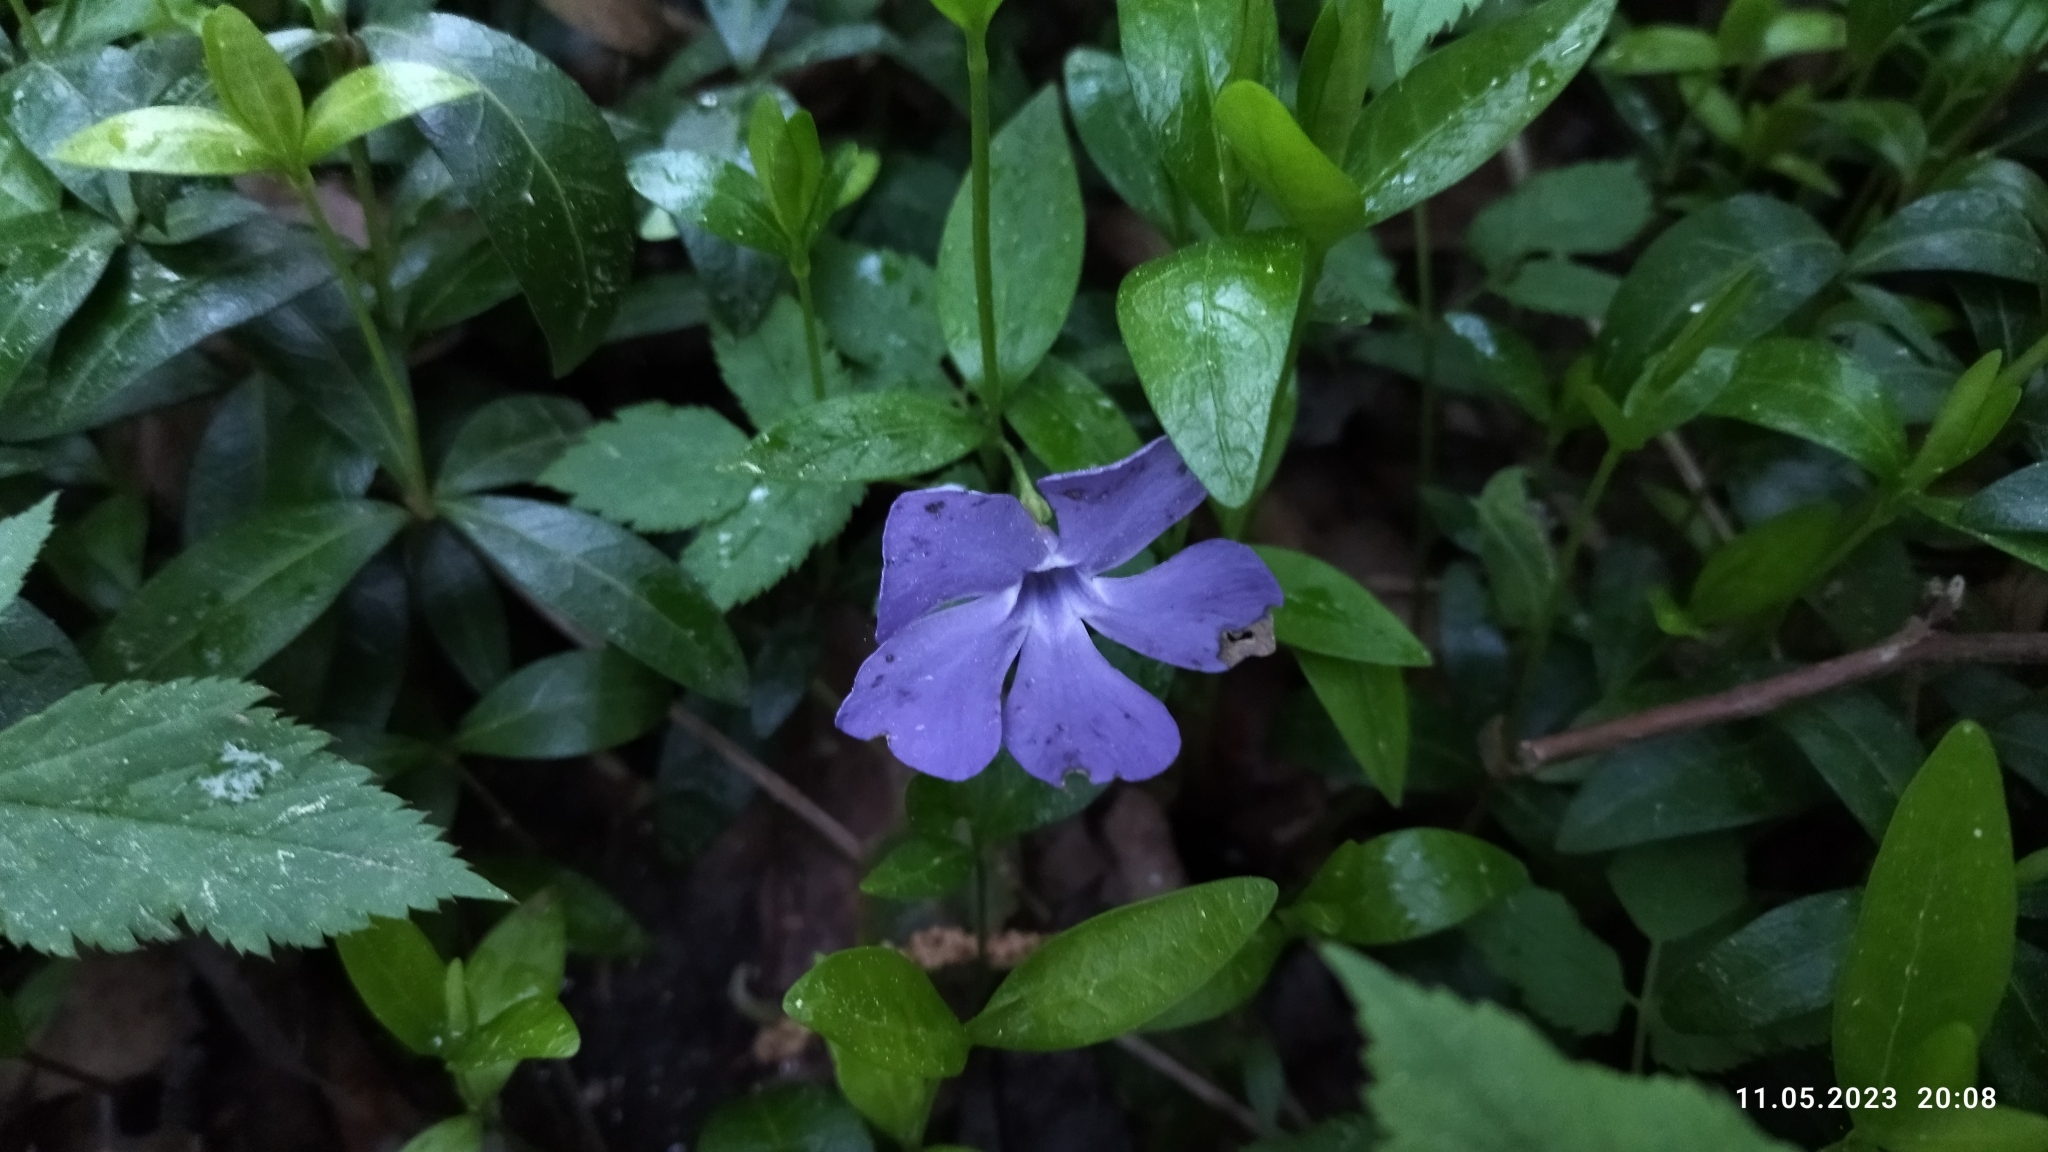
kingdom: Plantae
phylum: Tracheophyta
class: Magnoliopsida
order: Gentianales
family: Apocynaceae
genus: Vinca
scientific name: Vinca minor
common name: Lesser periwinkle
